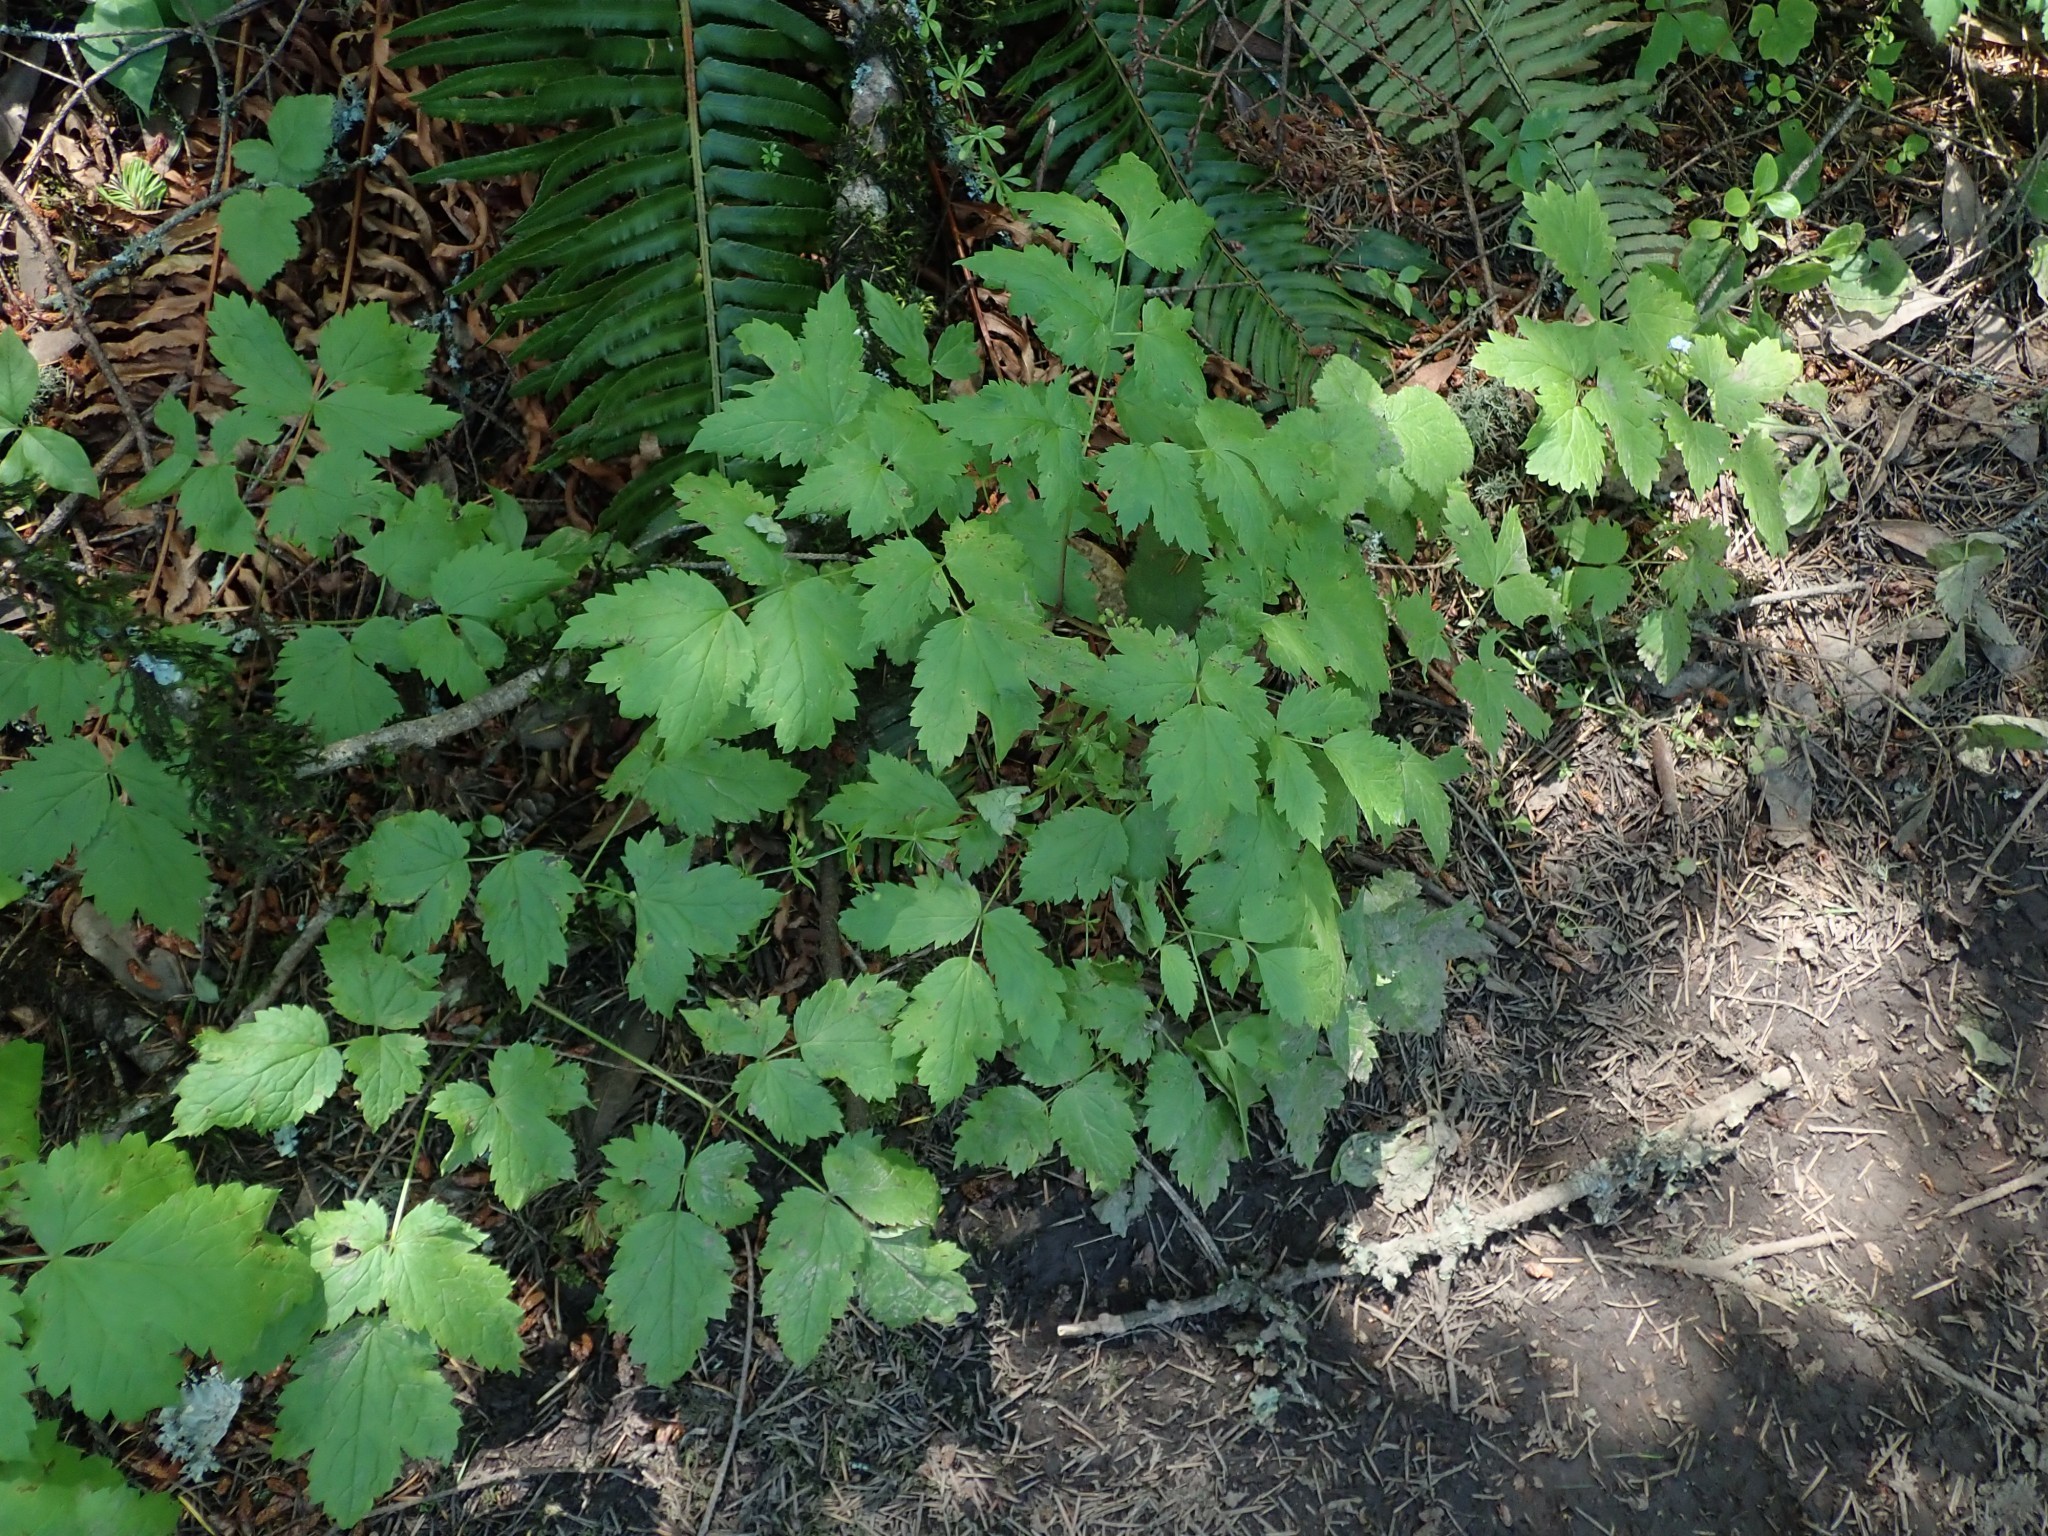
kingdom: Plantae
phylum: Tracheophyta
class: Magnoliopsida
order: Ranunculales
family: Ranunculaceae
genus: Actaea
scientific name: Actaea rubra
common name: Red baneberry
